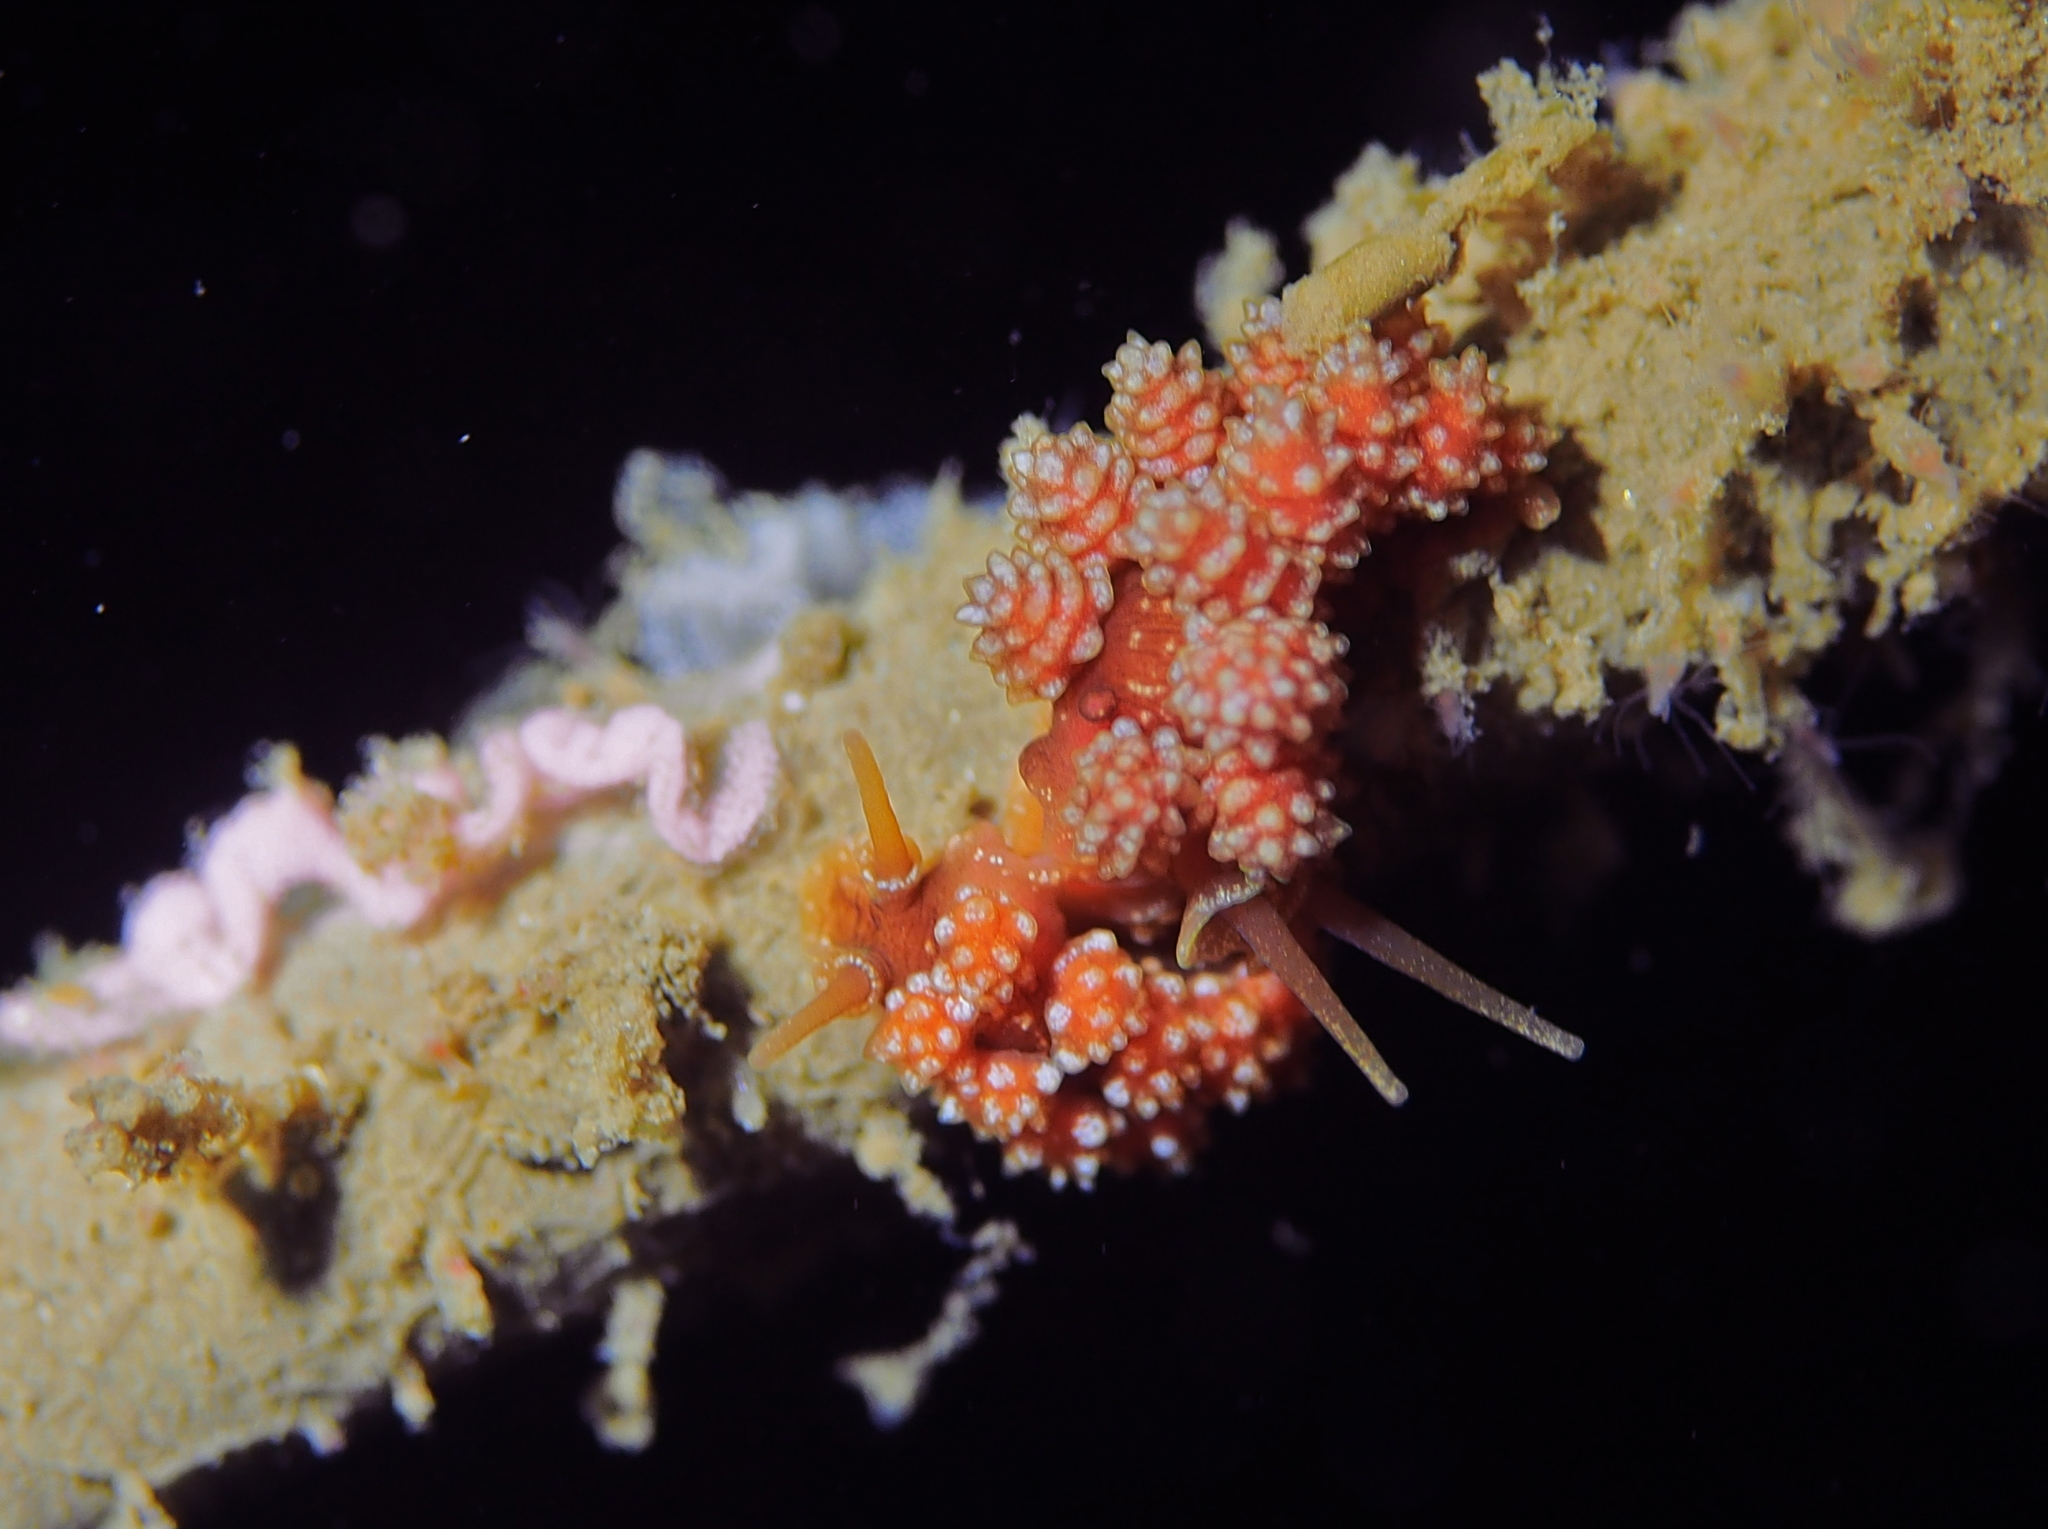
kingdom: Animalia
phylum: Mollusca
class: Gastropoda
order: Nudibranchia
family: Dotidae
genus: Doto
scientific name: Doto fragilis
